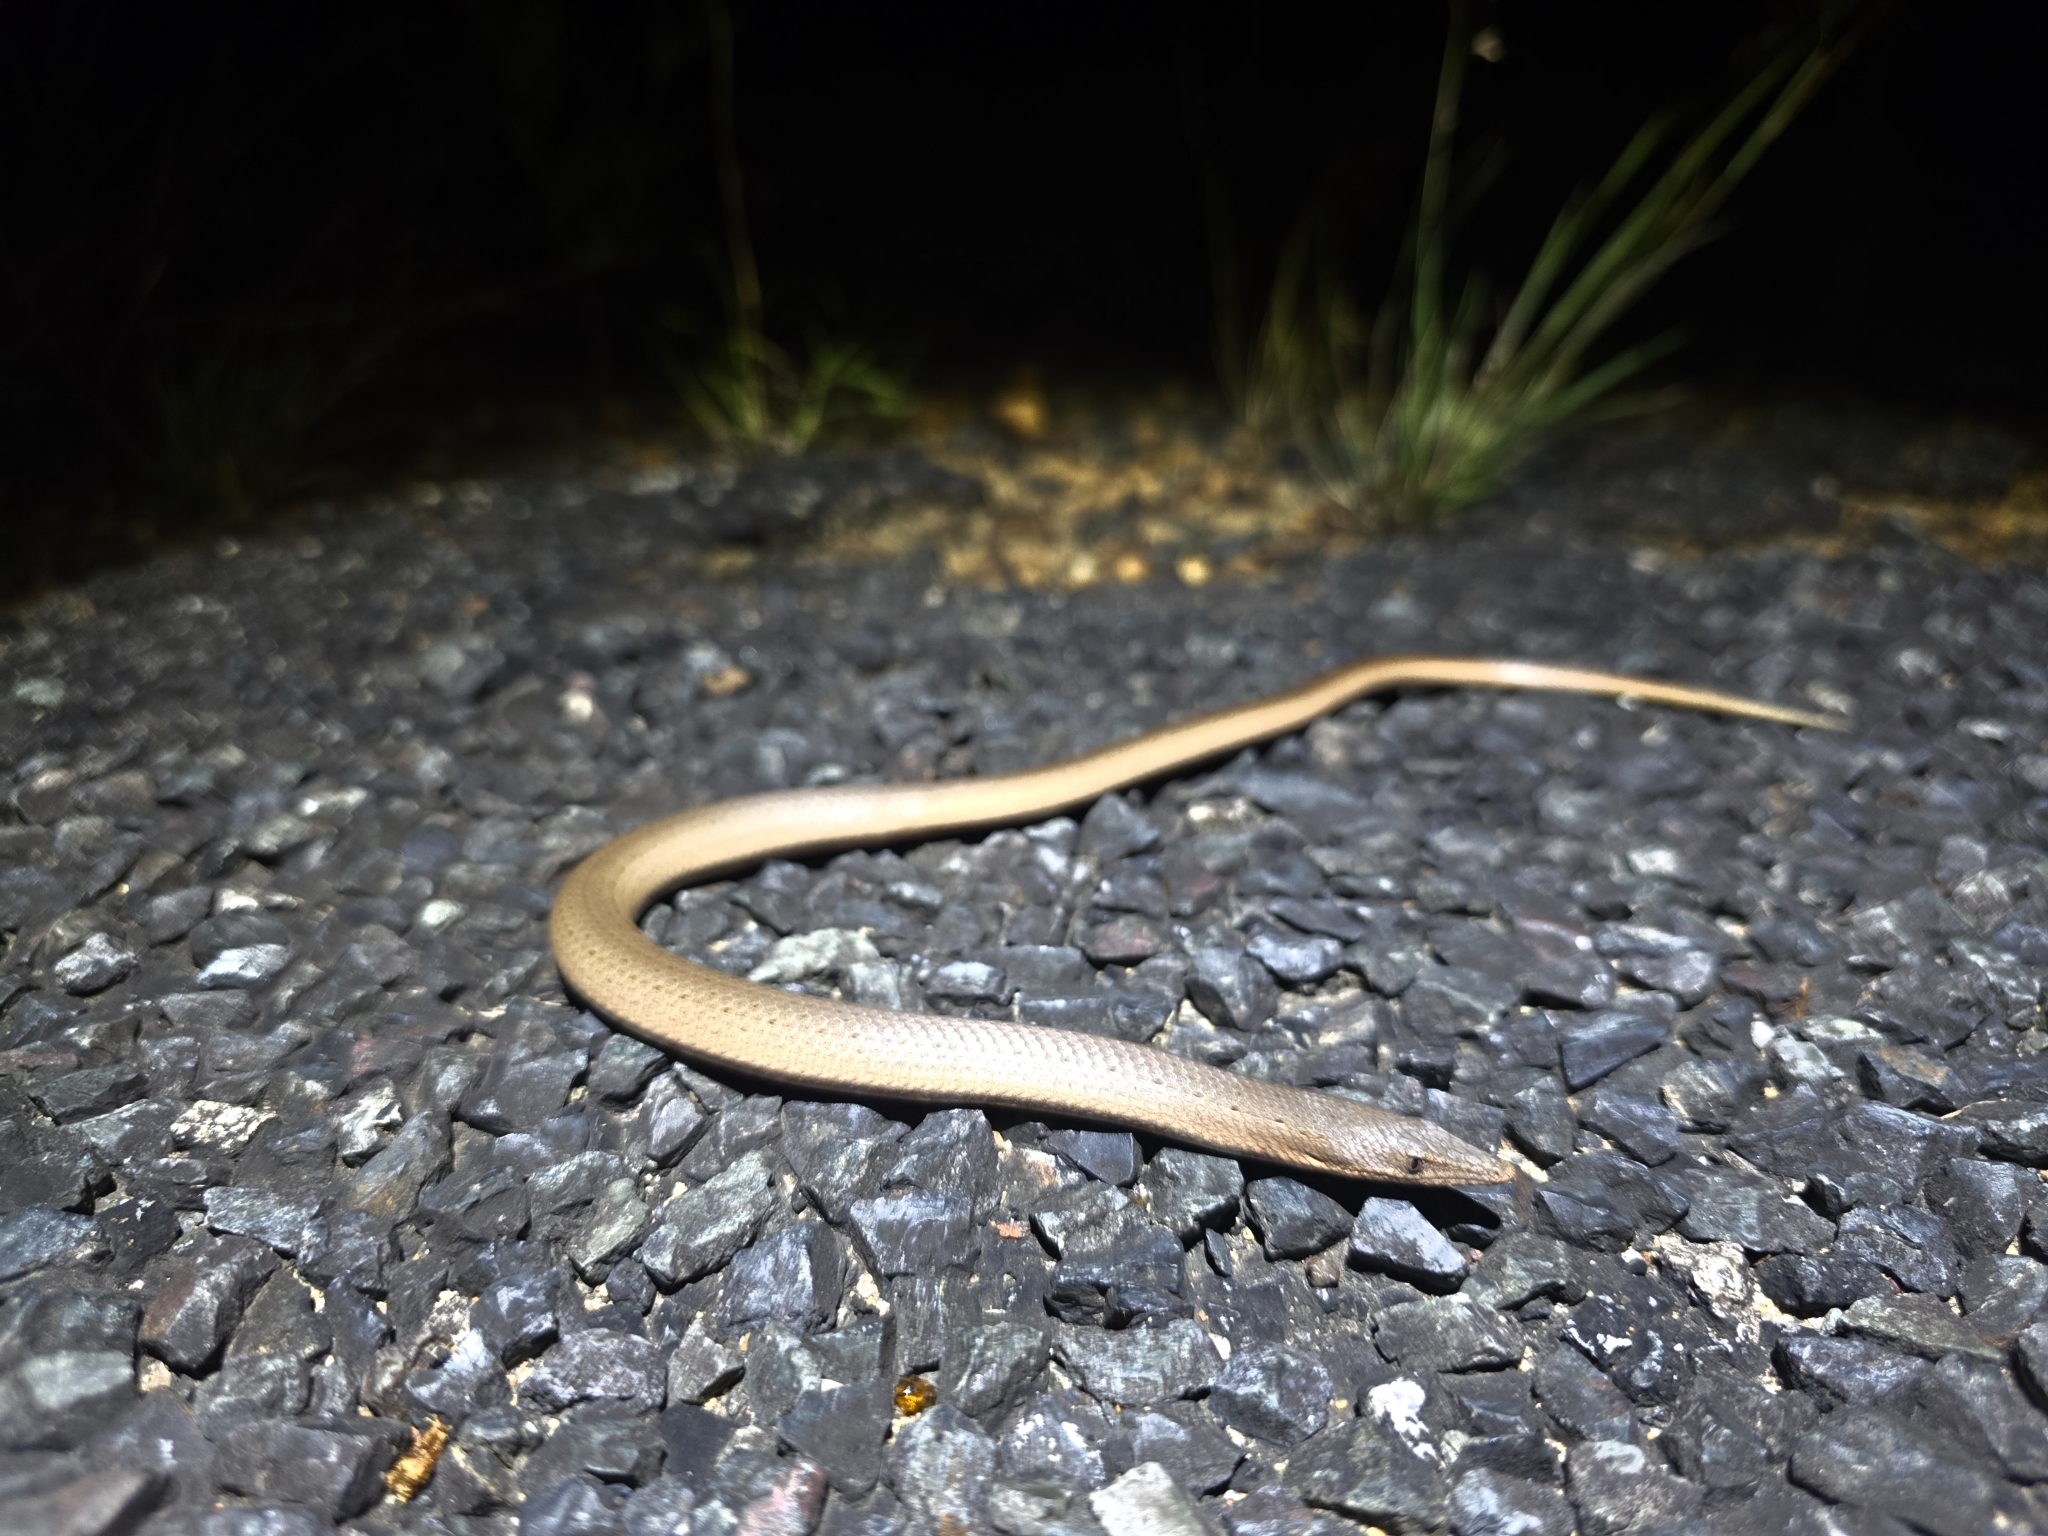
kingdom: Animalia
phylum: Chordata
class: Squamata
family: Pygopodidae
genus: Lialis
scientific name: Lialis burtonis
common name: Burton's legless lizard
